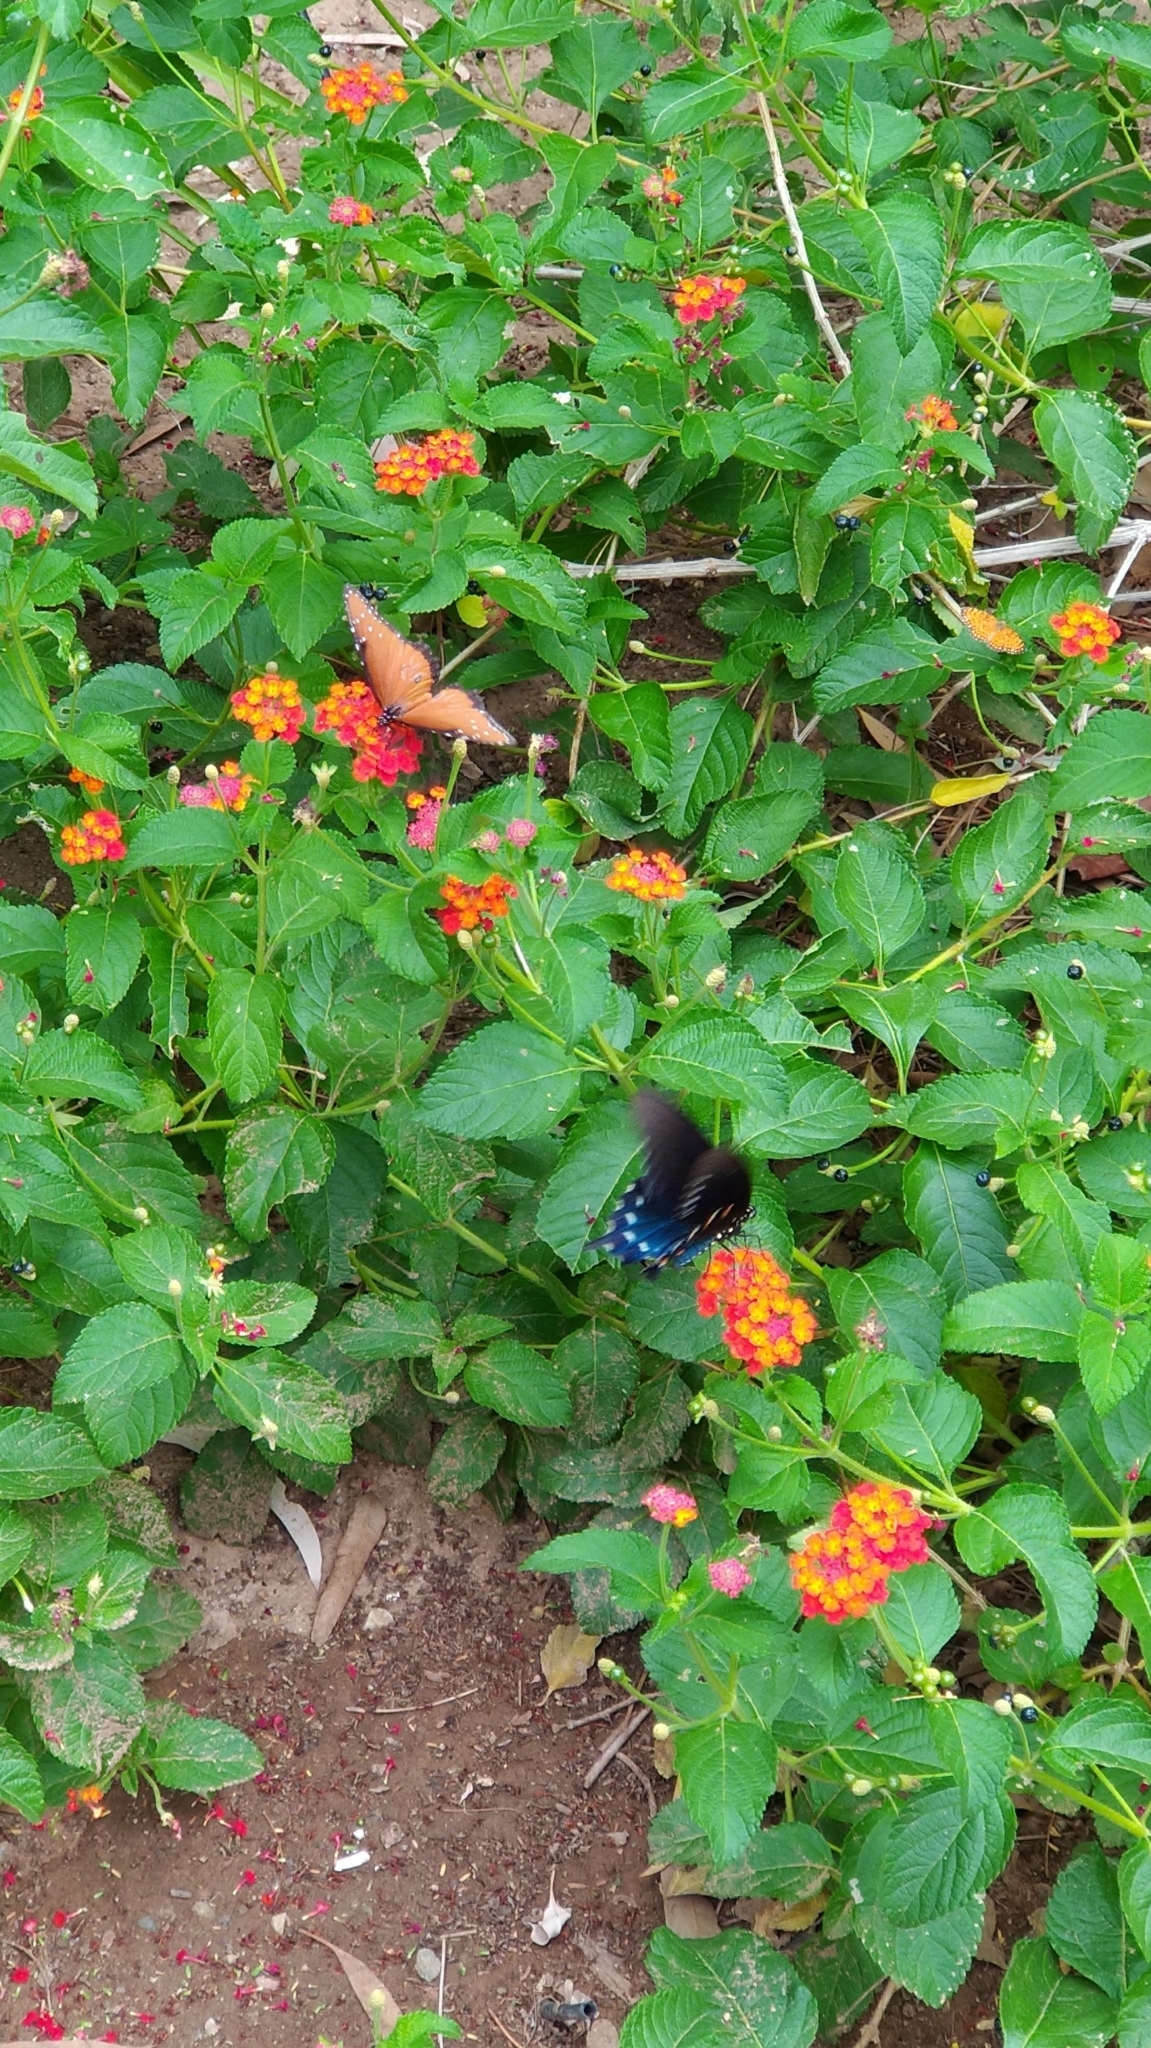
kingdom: Animalia
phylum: Arthropoda
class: Insecta
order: Lepidoptera
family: Nymphalidae
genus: Danaus
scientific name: Danaus gilippus
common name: Queen
